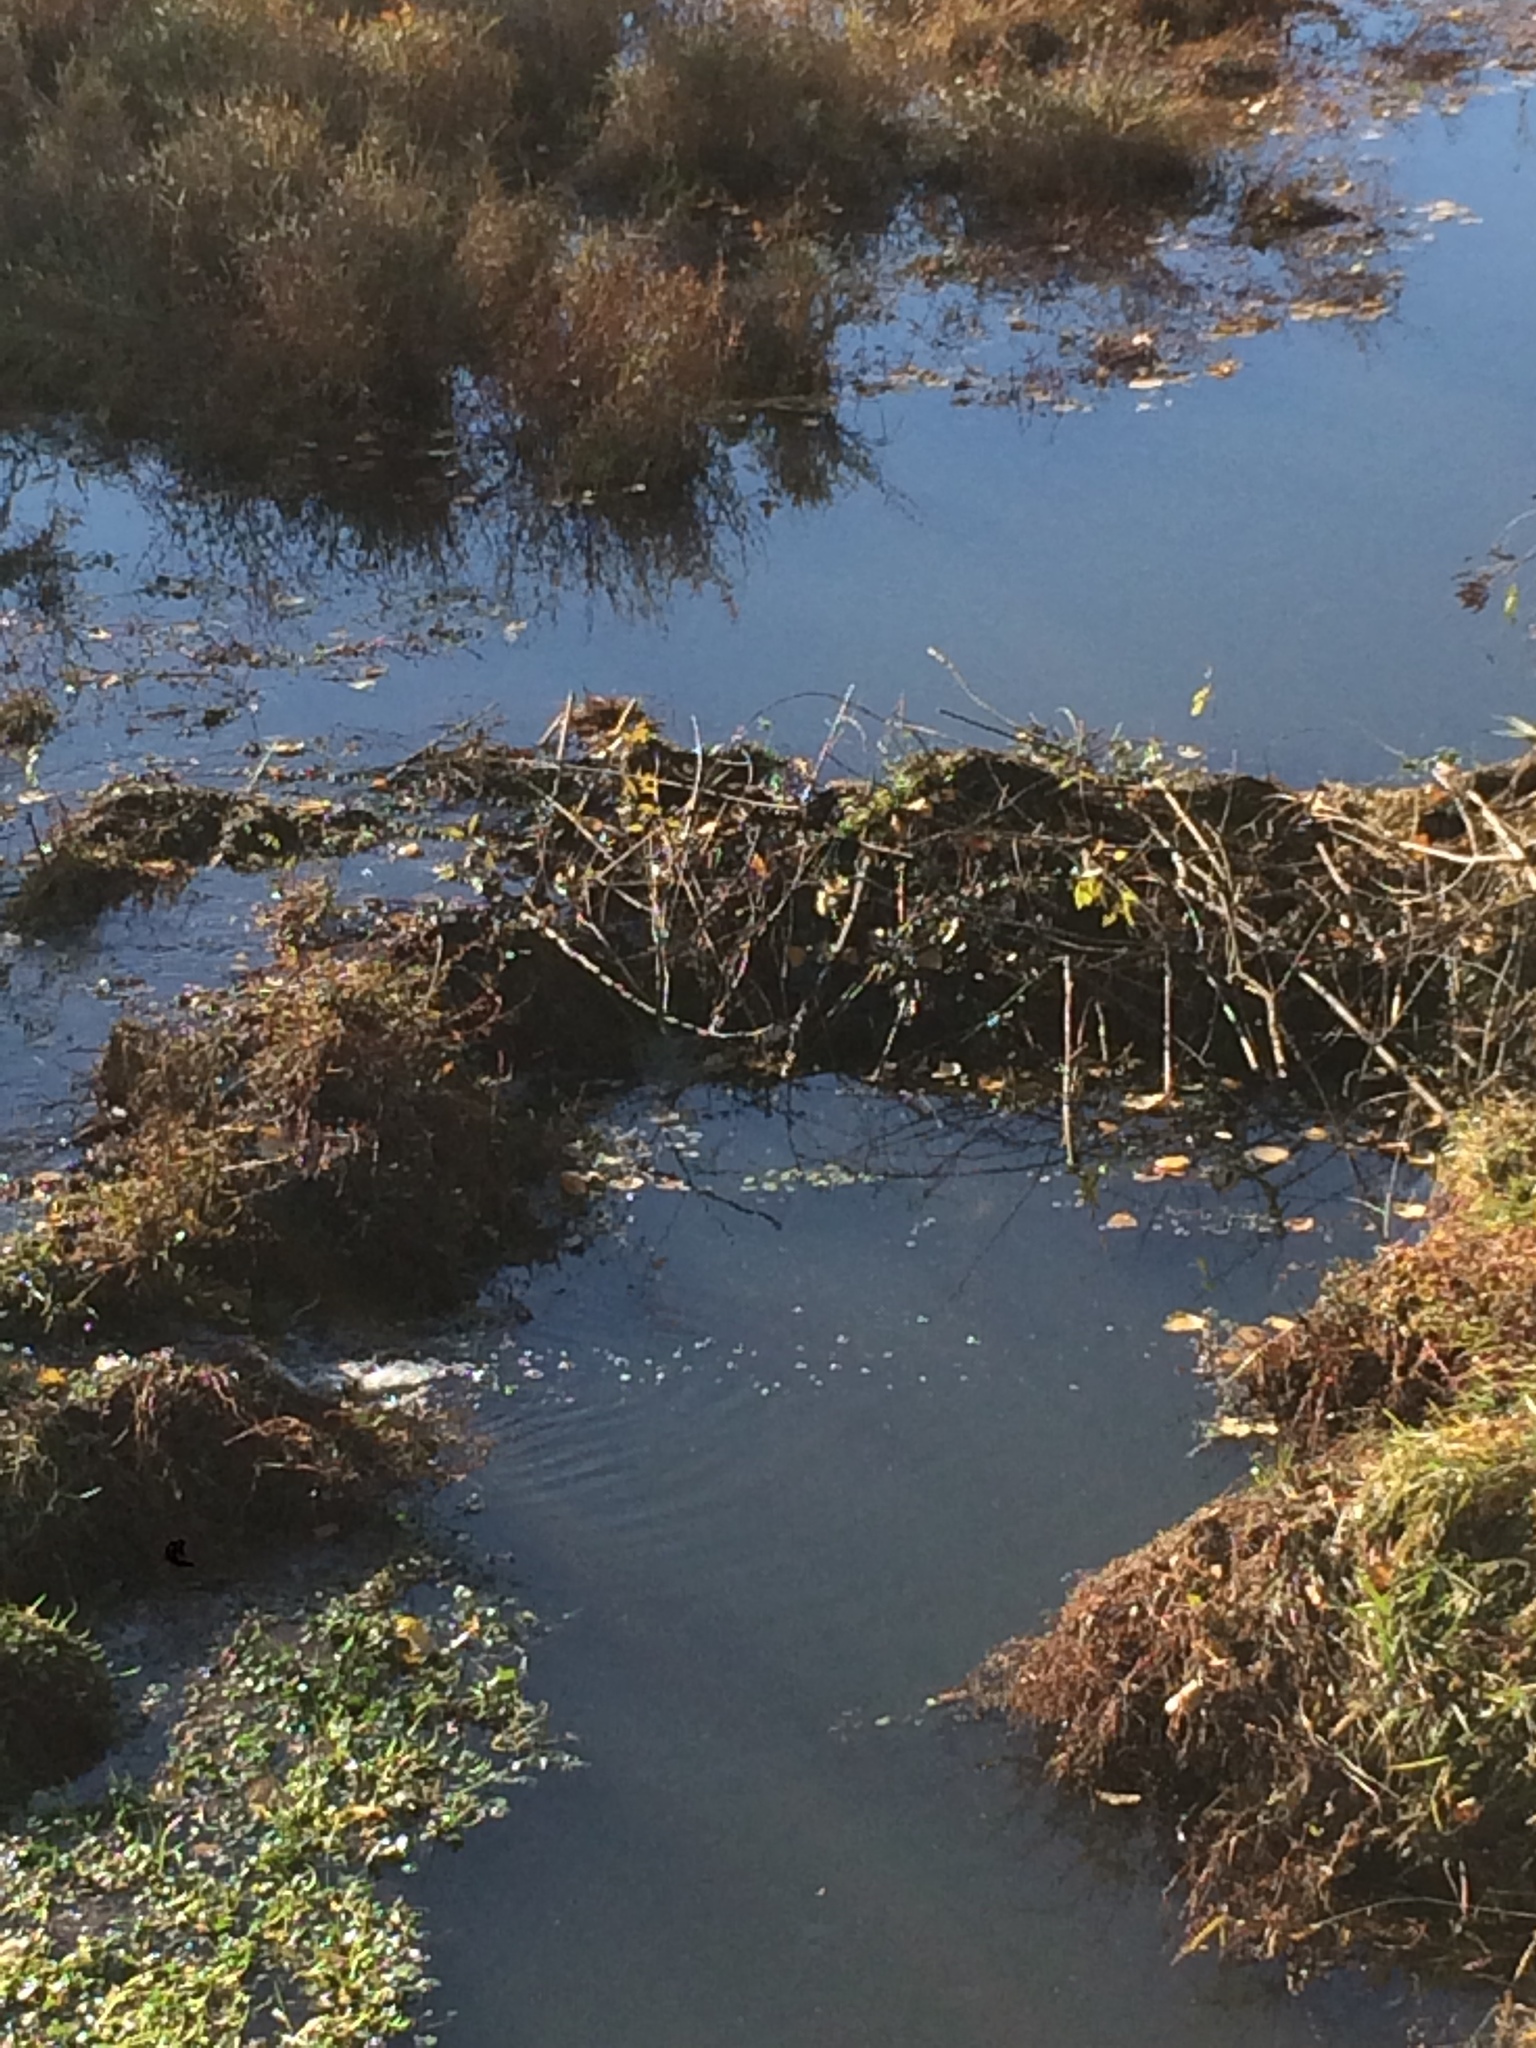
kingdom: Animalia
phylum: Chordata
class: Mammalia
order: Rodentia
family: Castoridae
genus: Castor
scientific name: Castor canadensis
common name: American beaver
